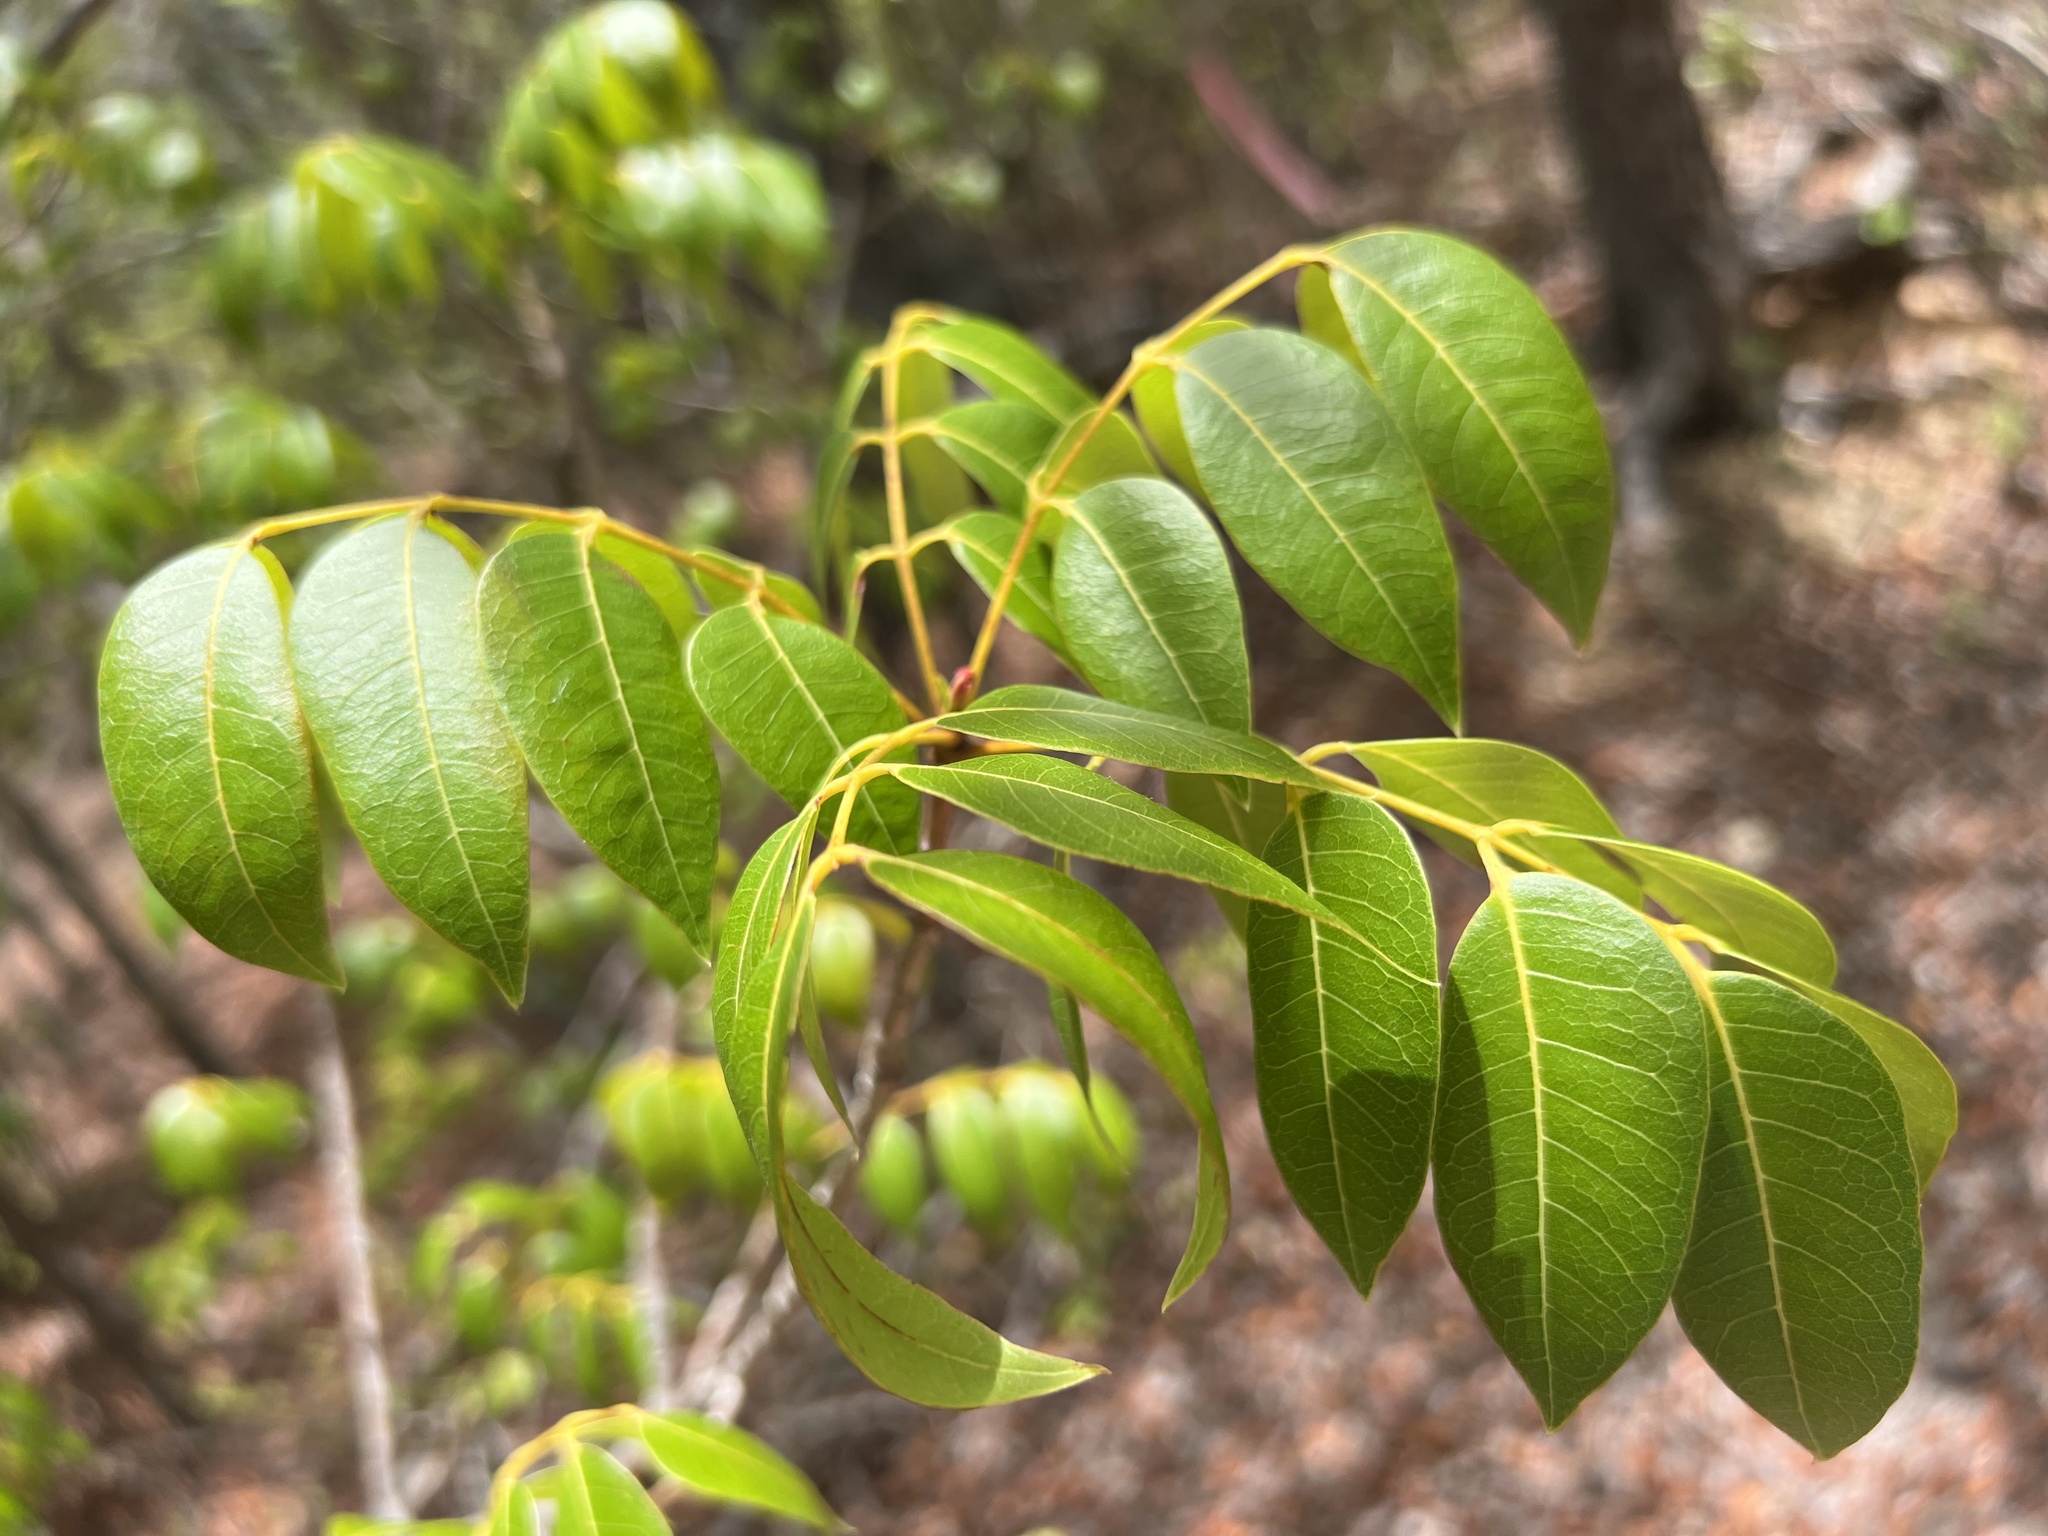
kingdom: Plantae
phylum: Tracheophyta
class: Magnoliopsida
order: Sapindales
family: Meliaceae
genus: Swietenia
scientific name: Swietenia mahagoni
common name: West indian mahogany
